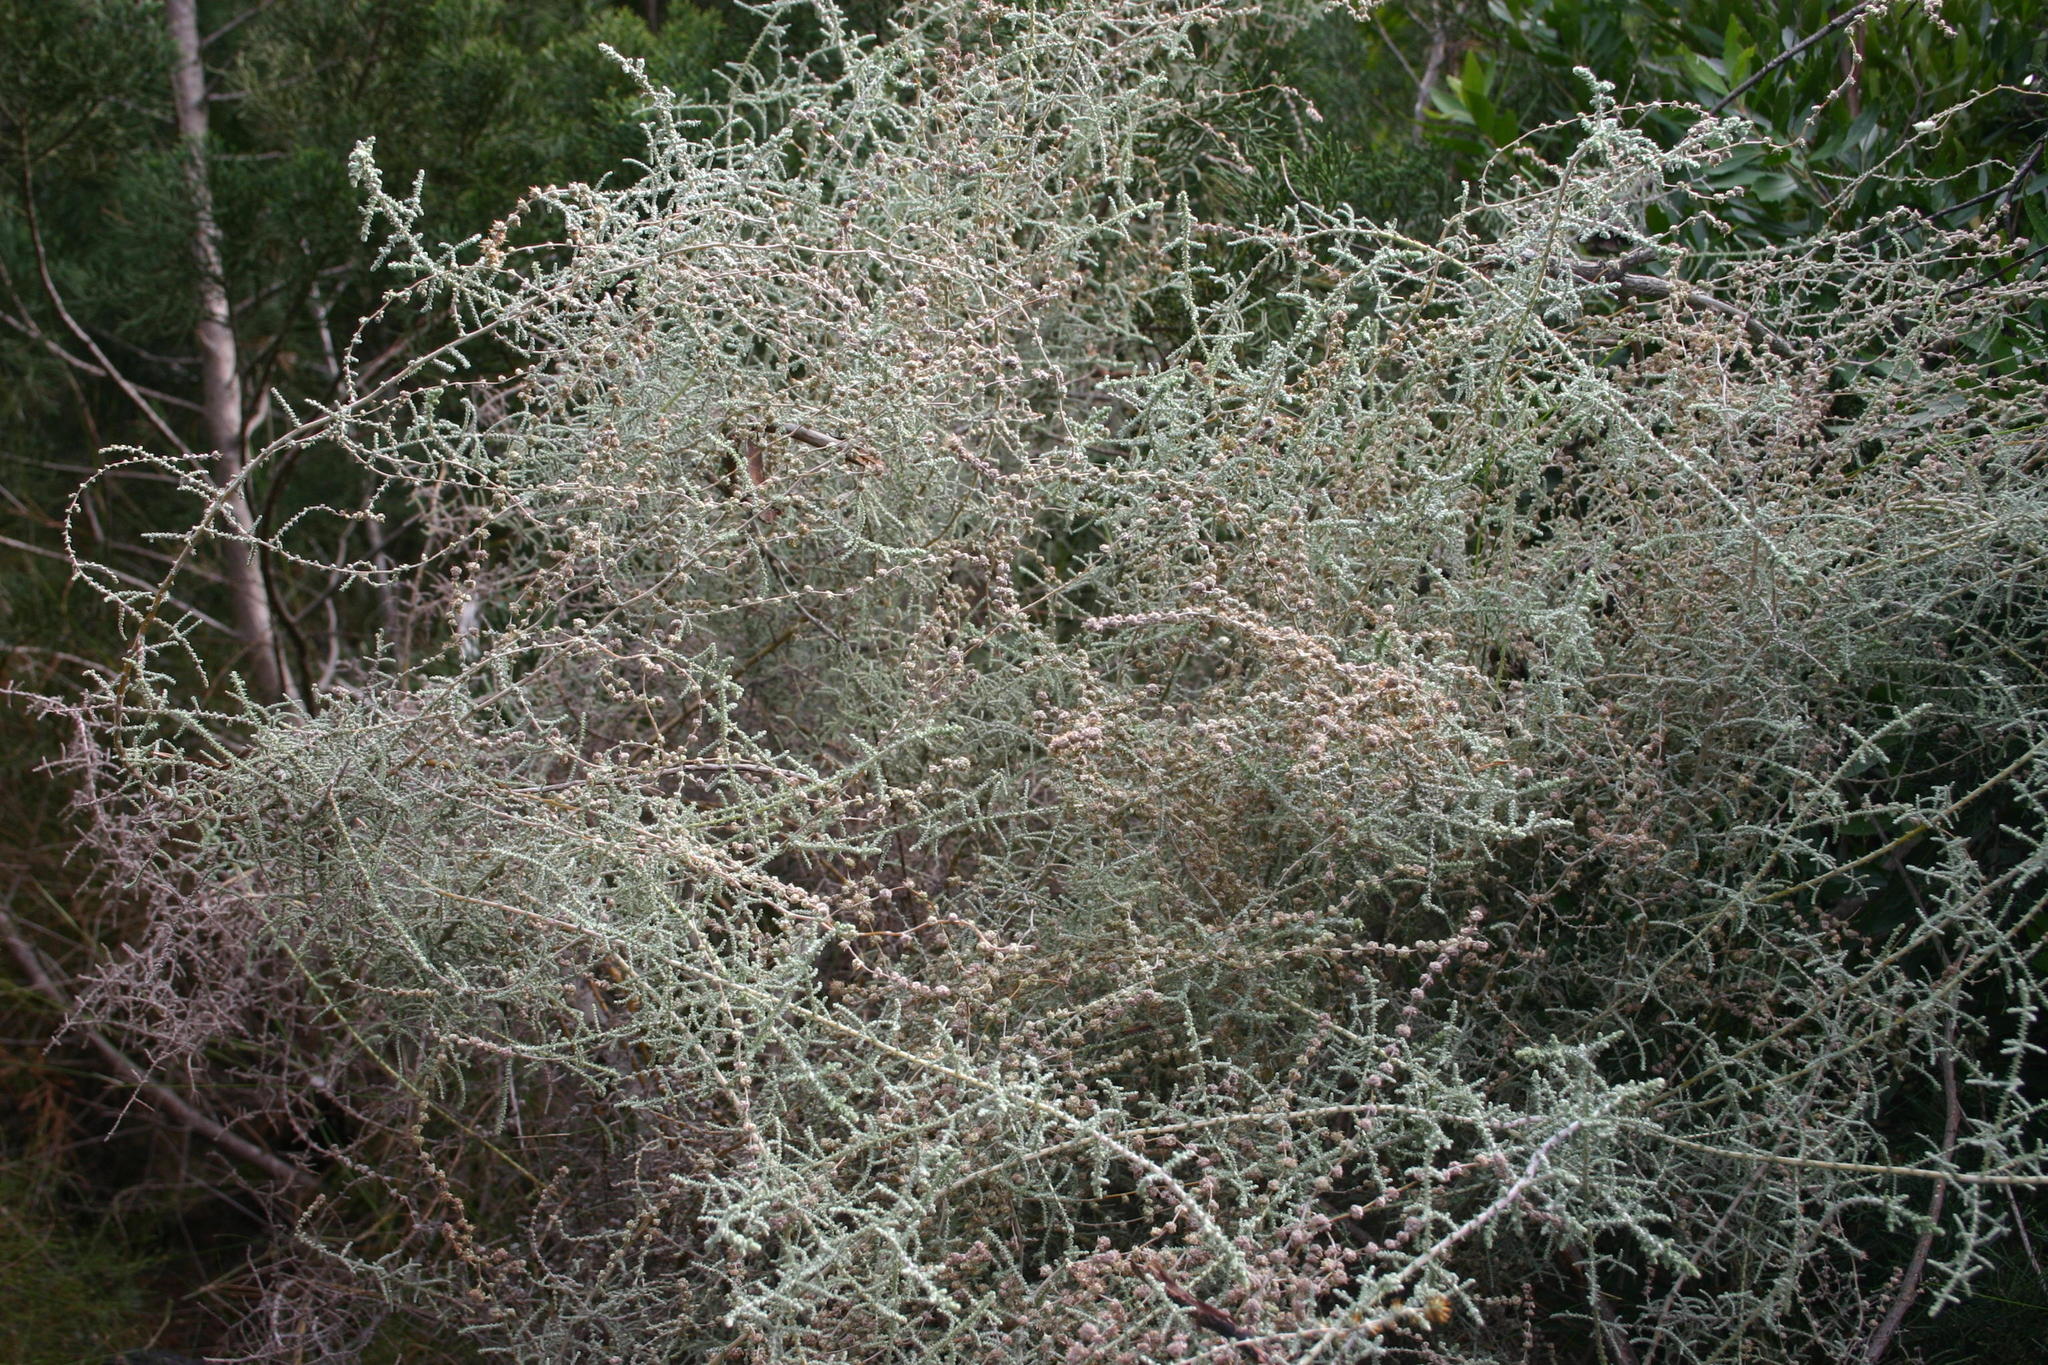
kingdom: Plantae
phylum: Tracheophyta
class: Magnoliopsida
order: Asterales
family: Asteraceae
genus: Seriphium
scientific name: Seriphium plumosum
